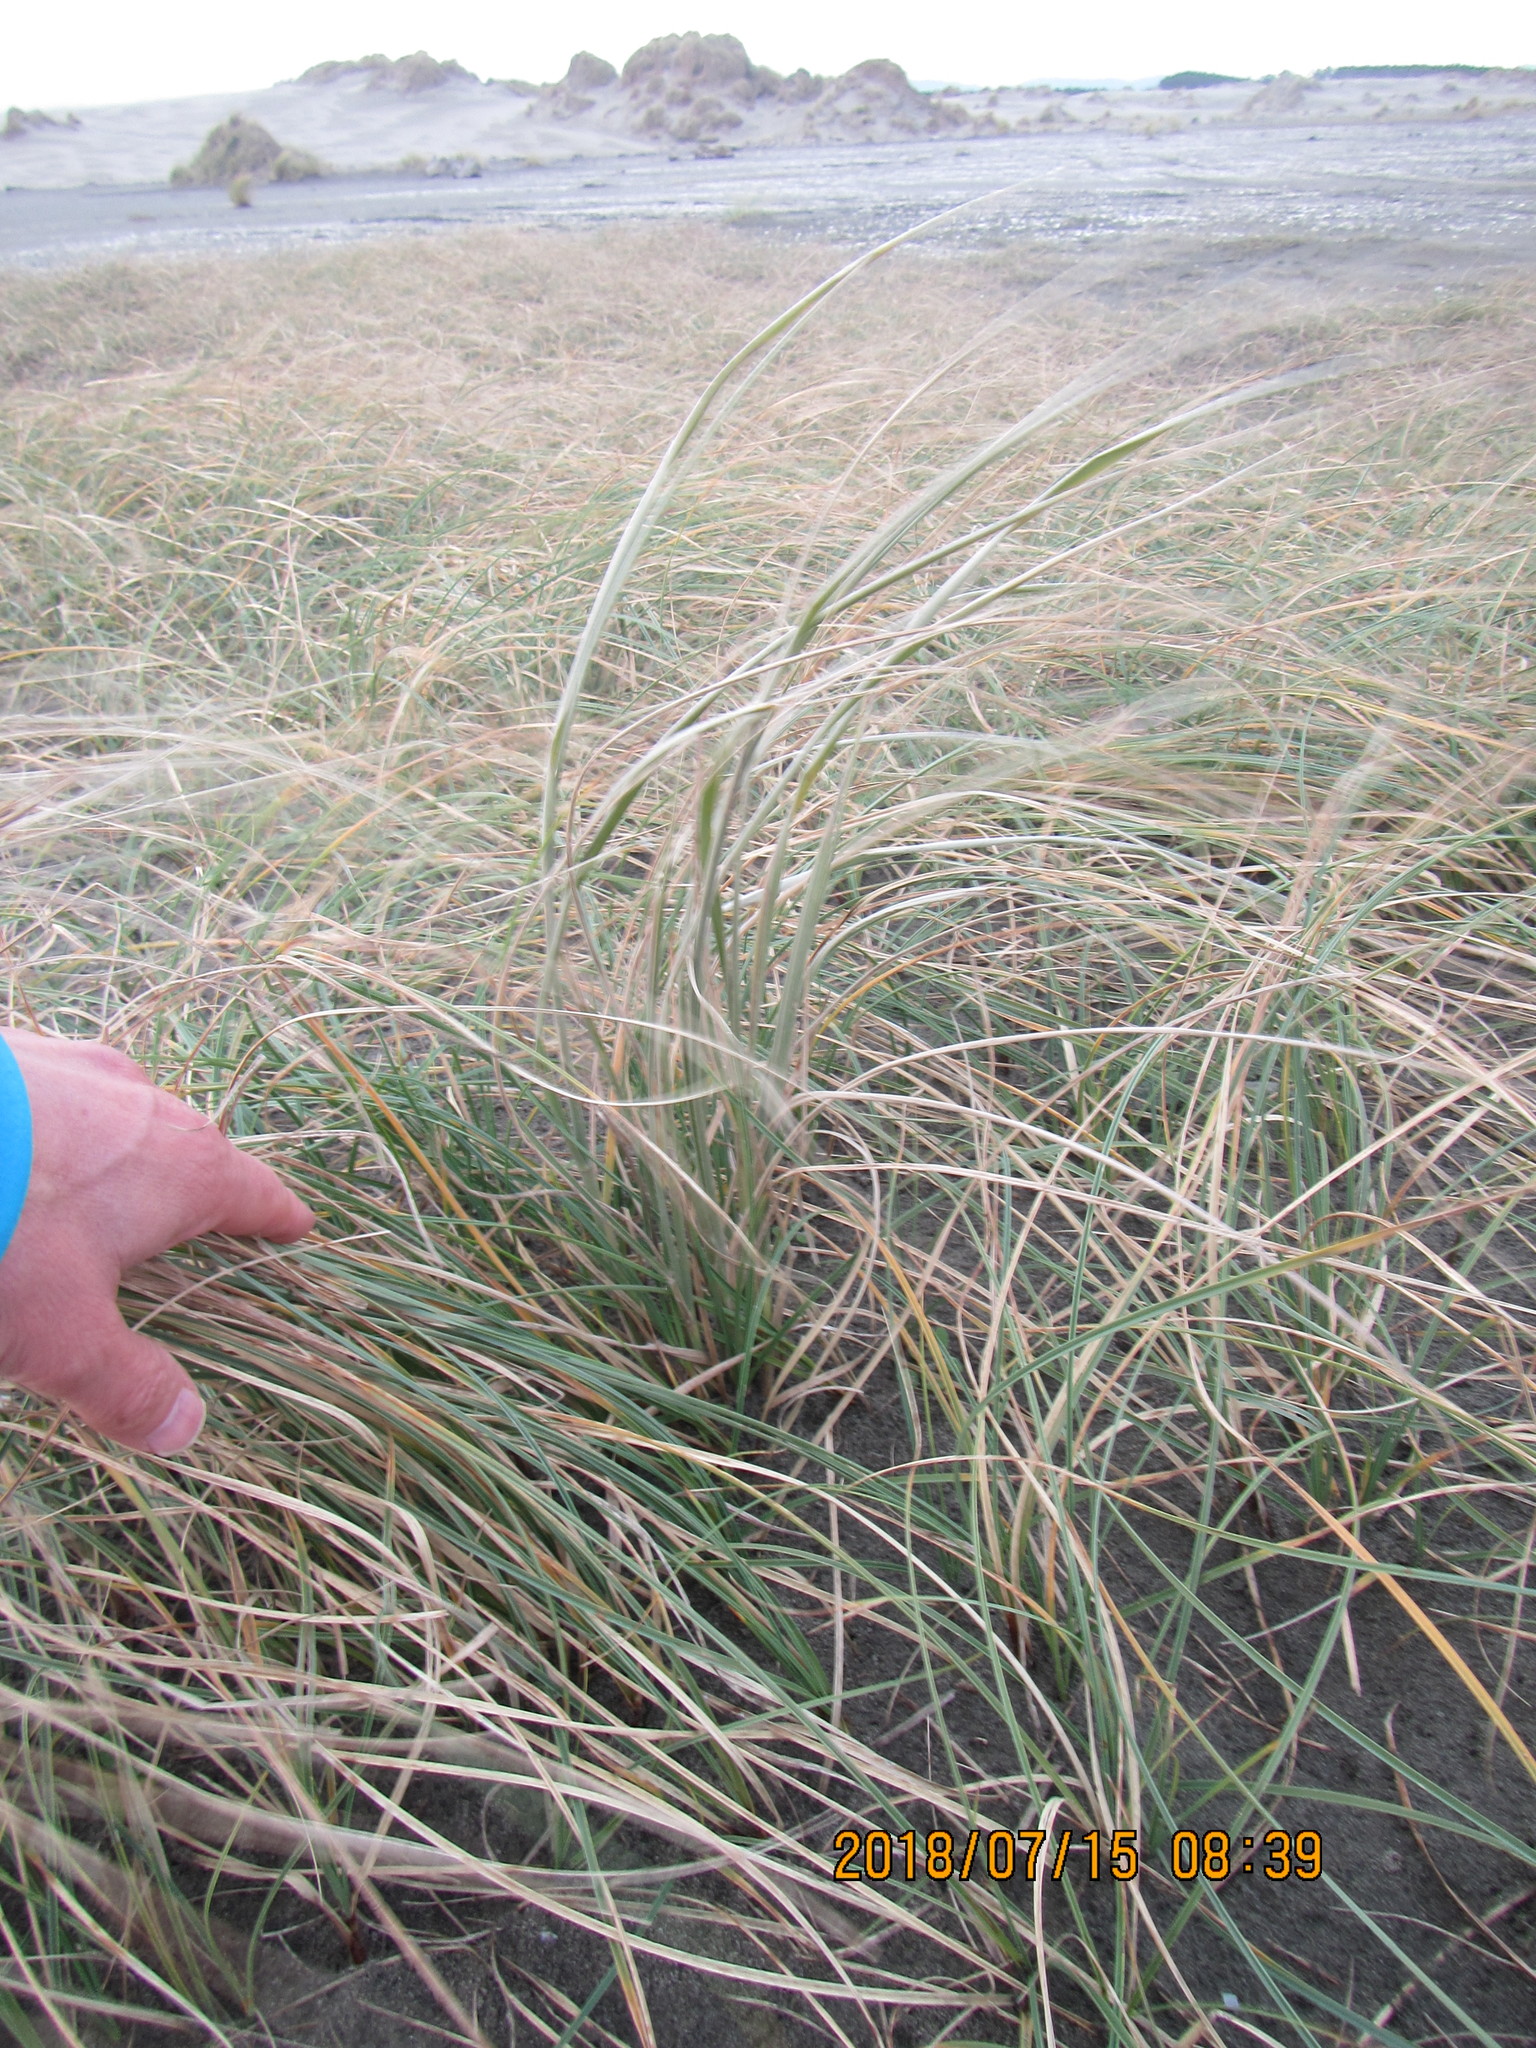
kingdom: Plantae
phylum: Tracheophyta
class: Liliopsida
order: Poales
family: Poaceae
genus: Spinifex
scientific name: Spinifex sericeus
